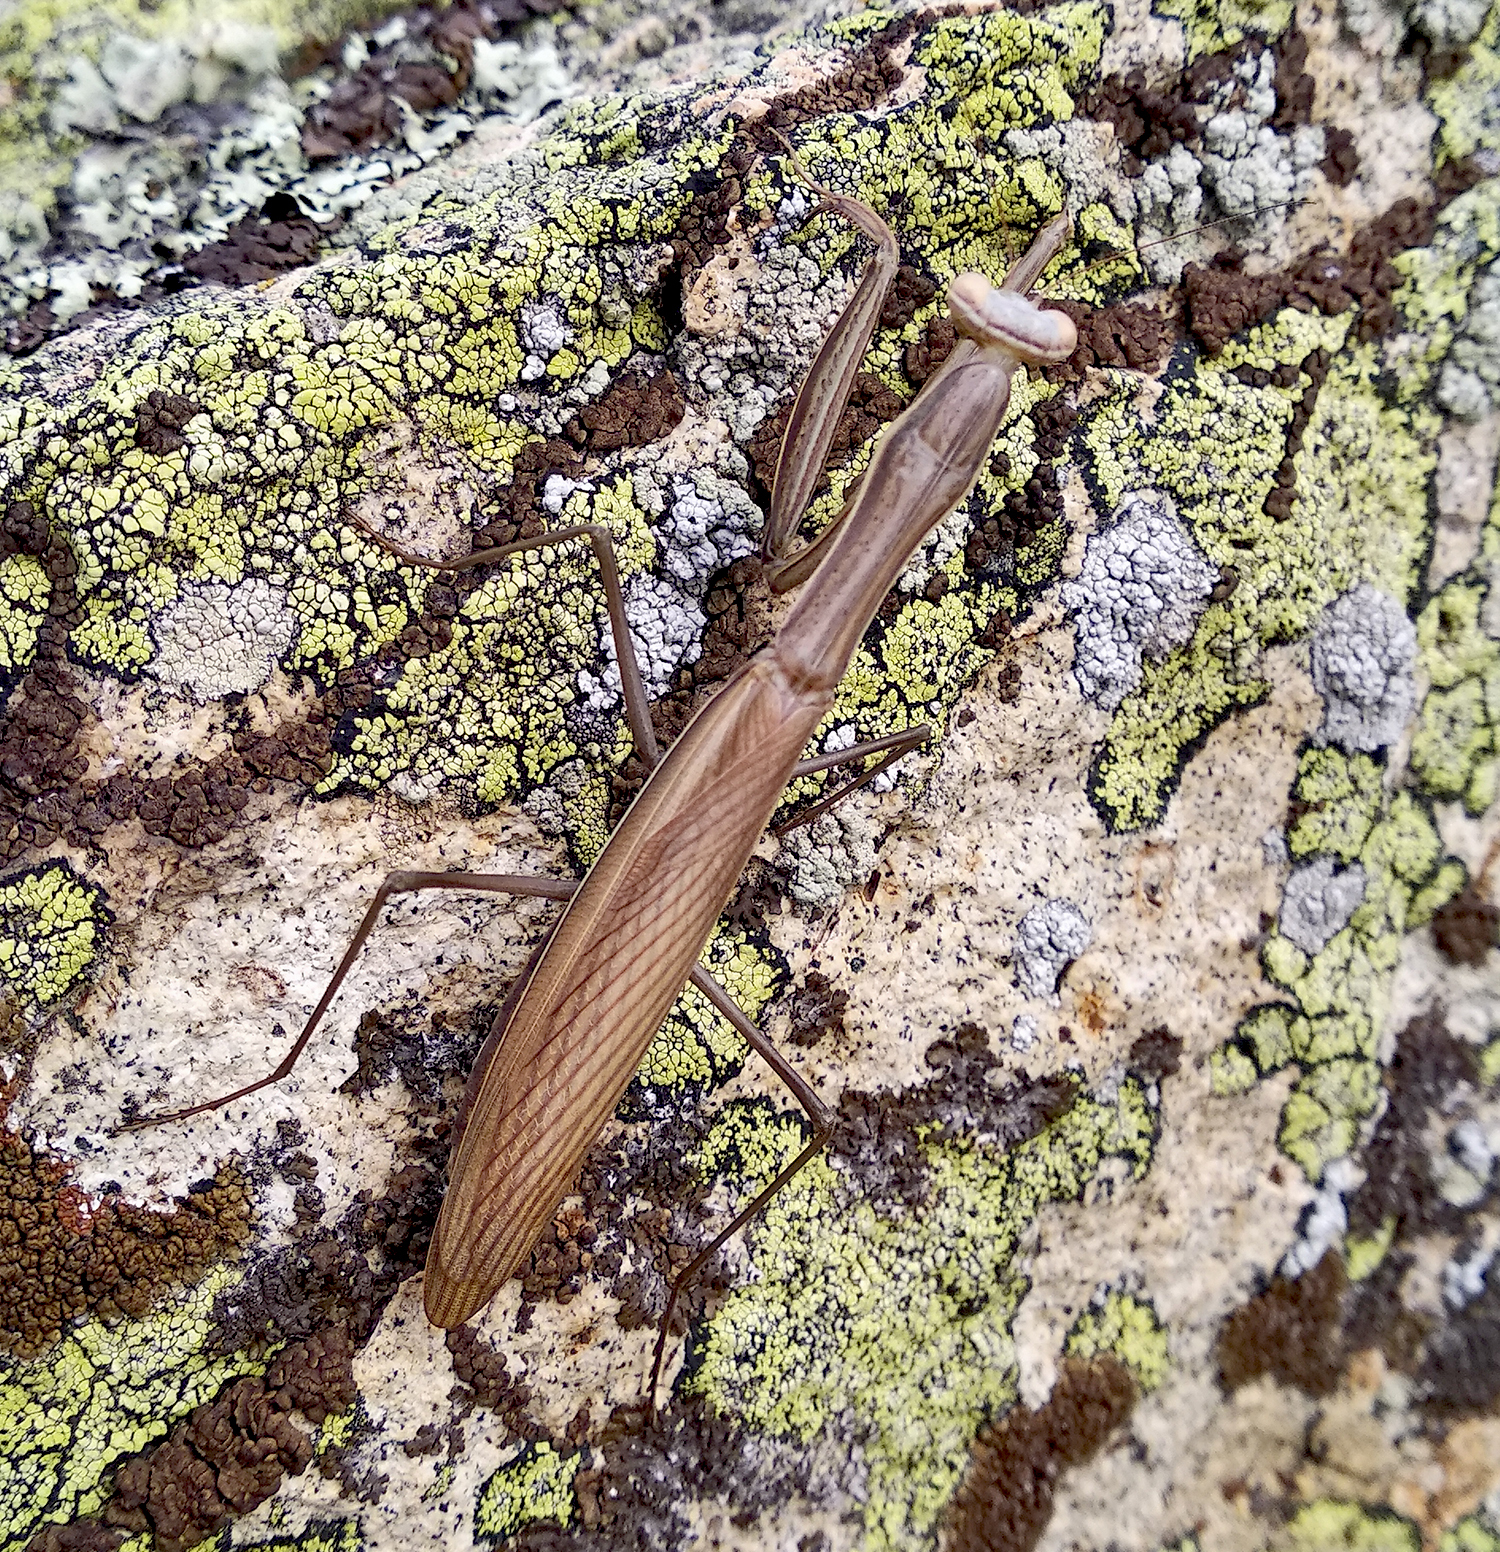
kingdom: Animalia
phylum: Arthropoda
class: Insecta
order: Mantodea
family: Mantidae
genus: Mantis
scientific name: Mantis religiosa
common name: Praying mantis
